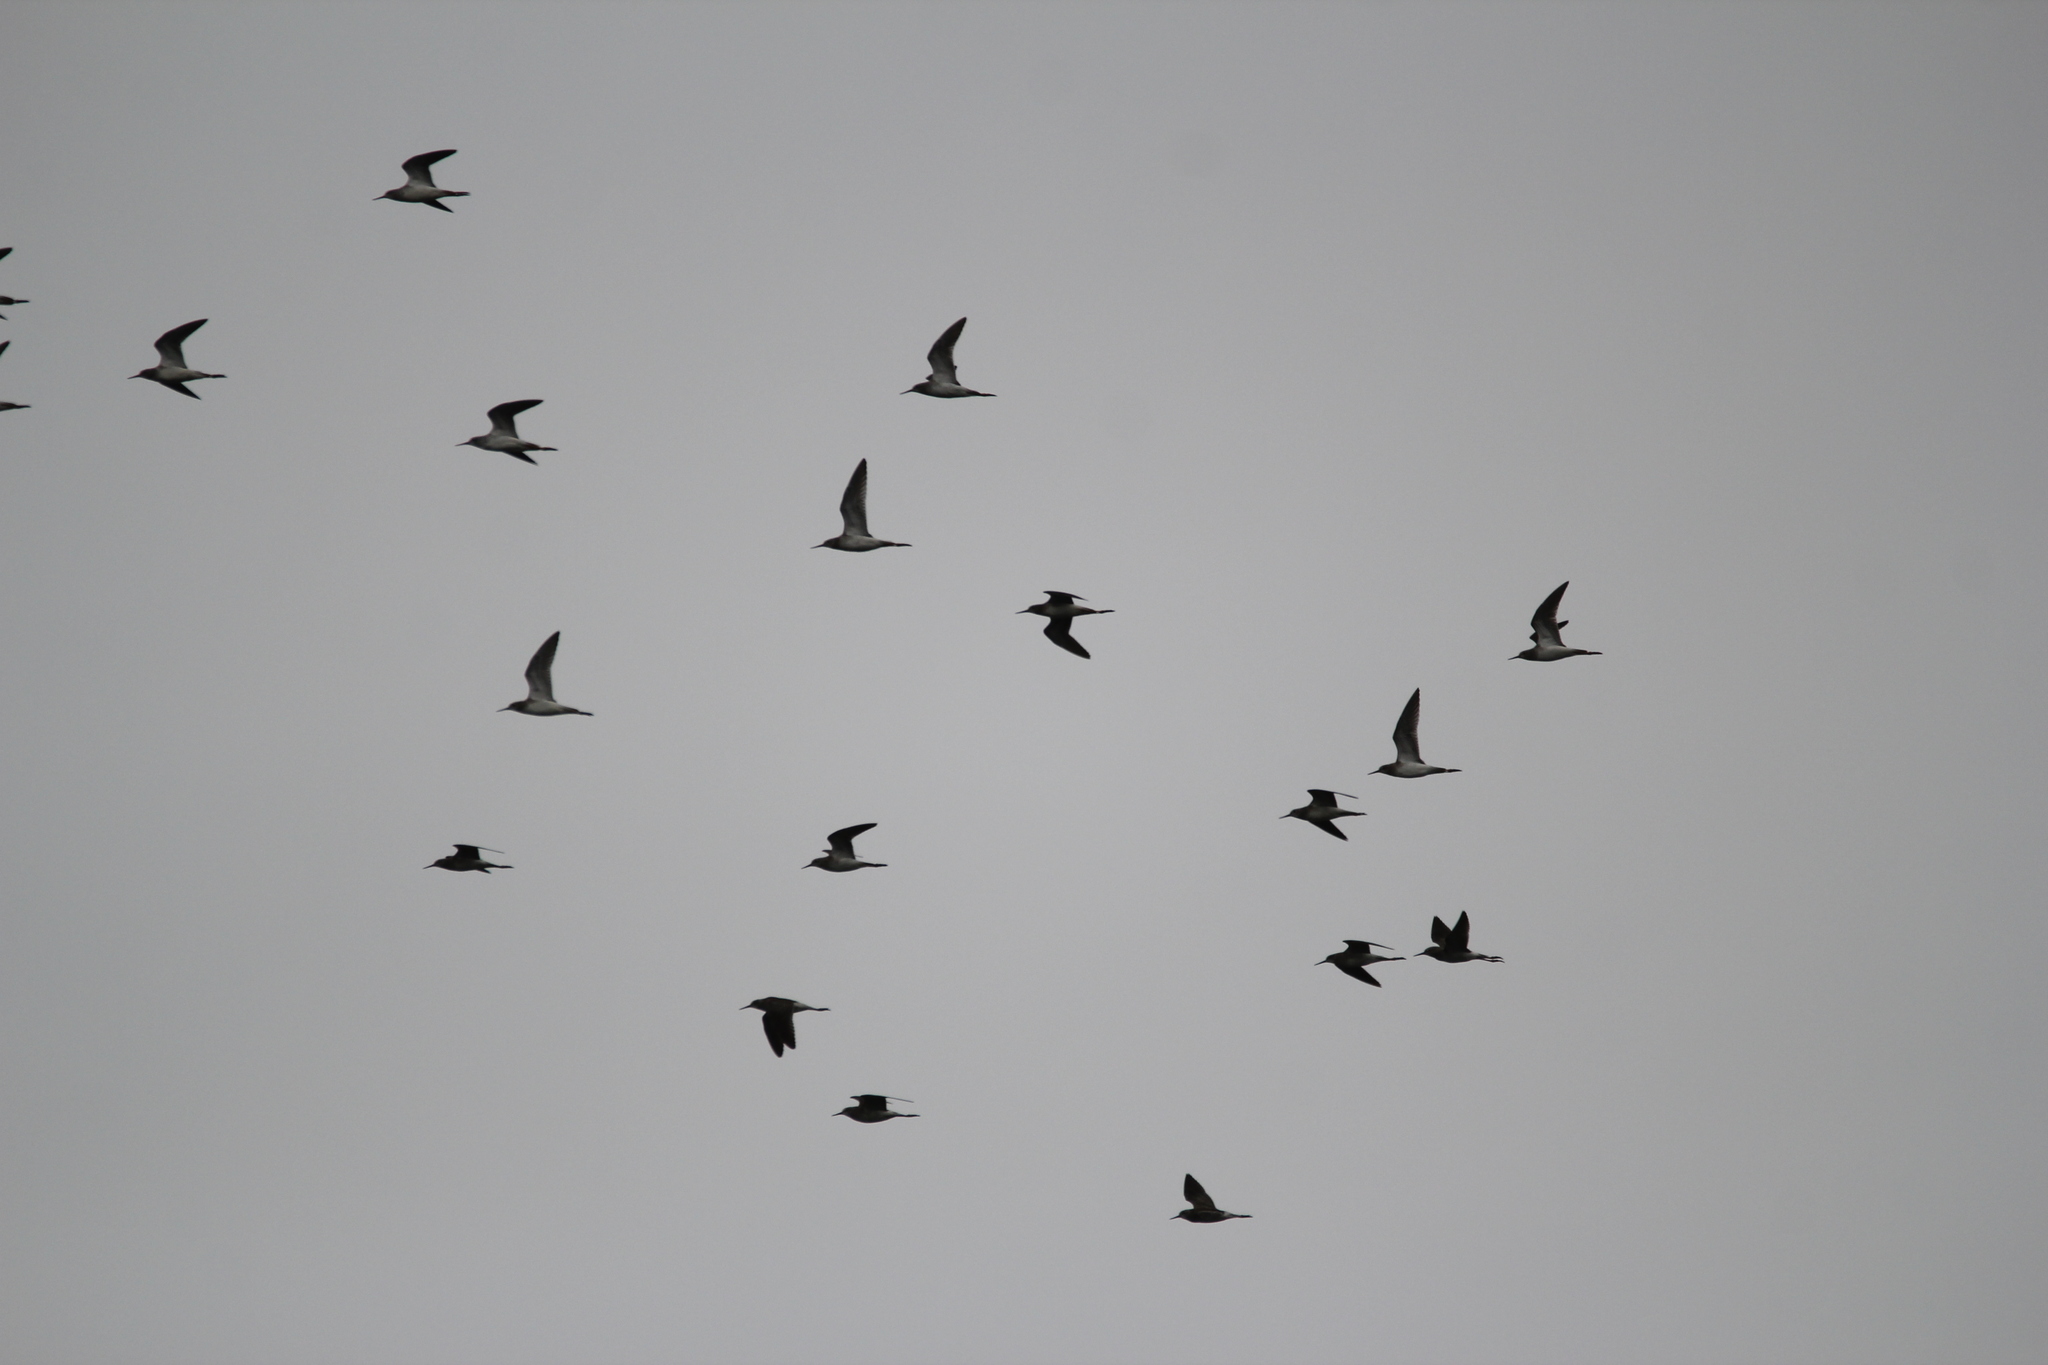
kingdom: Animalia
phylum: Chordata
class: Aves
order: Charadriiformes
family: Scolopacidae
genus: Tringa
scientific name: Tringa flavipes
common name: Lesser yellowlegs
